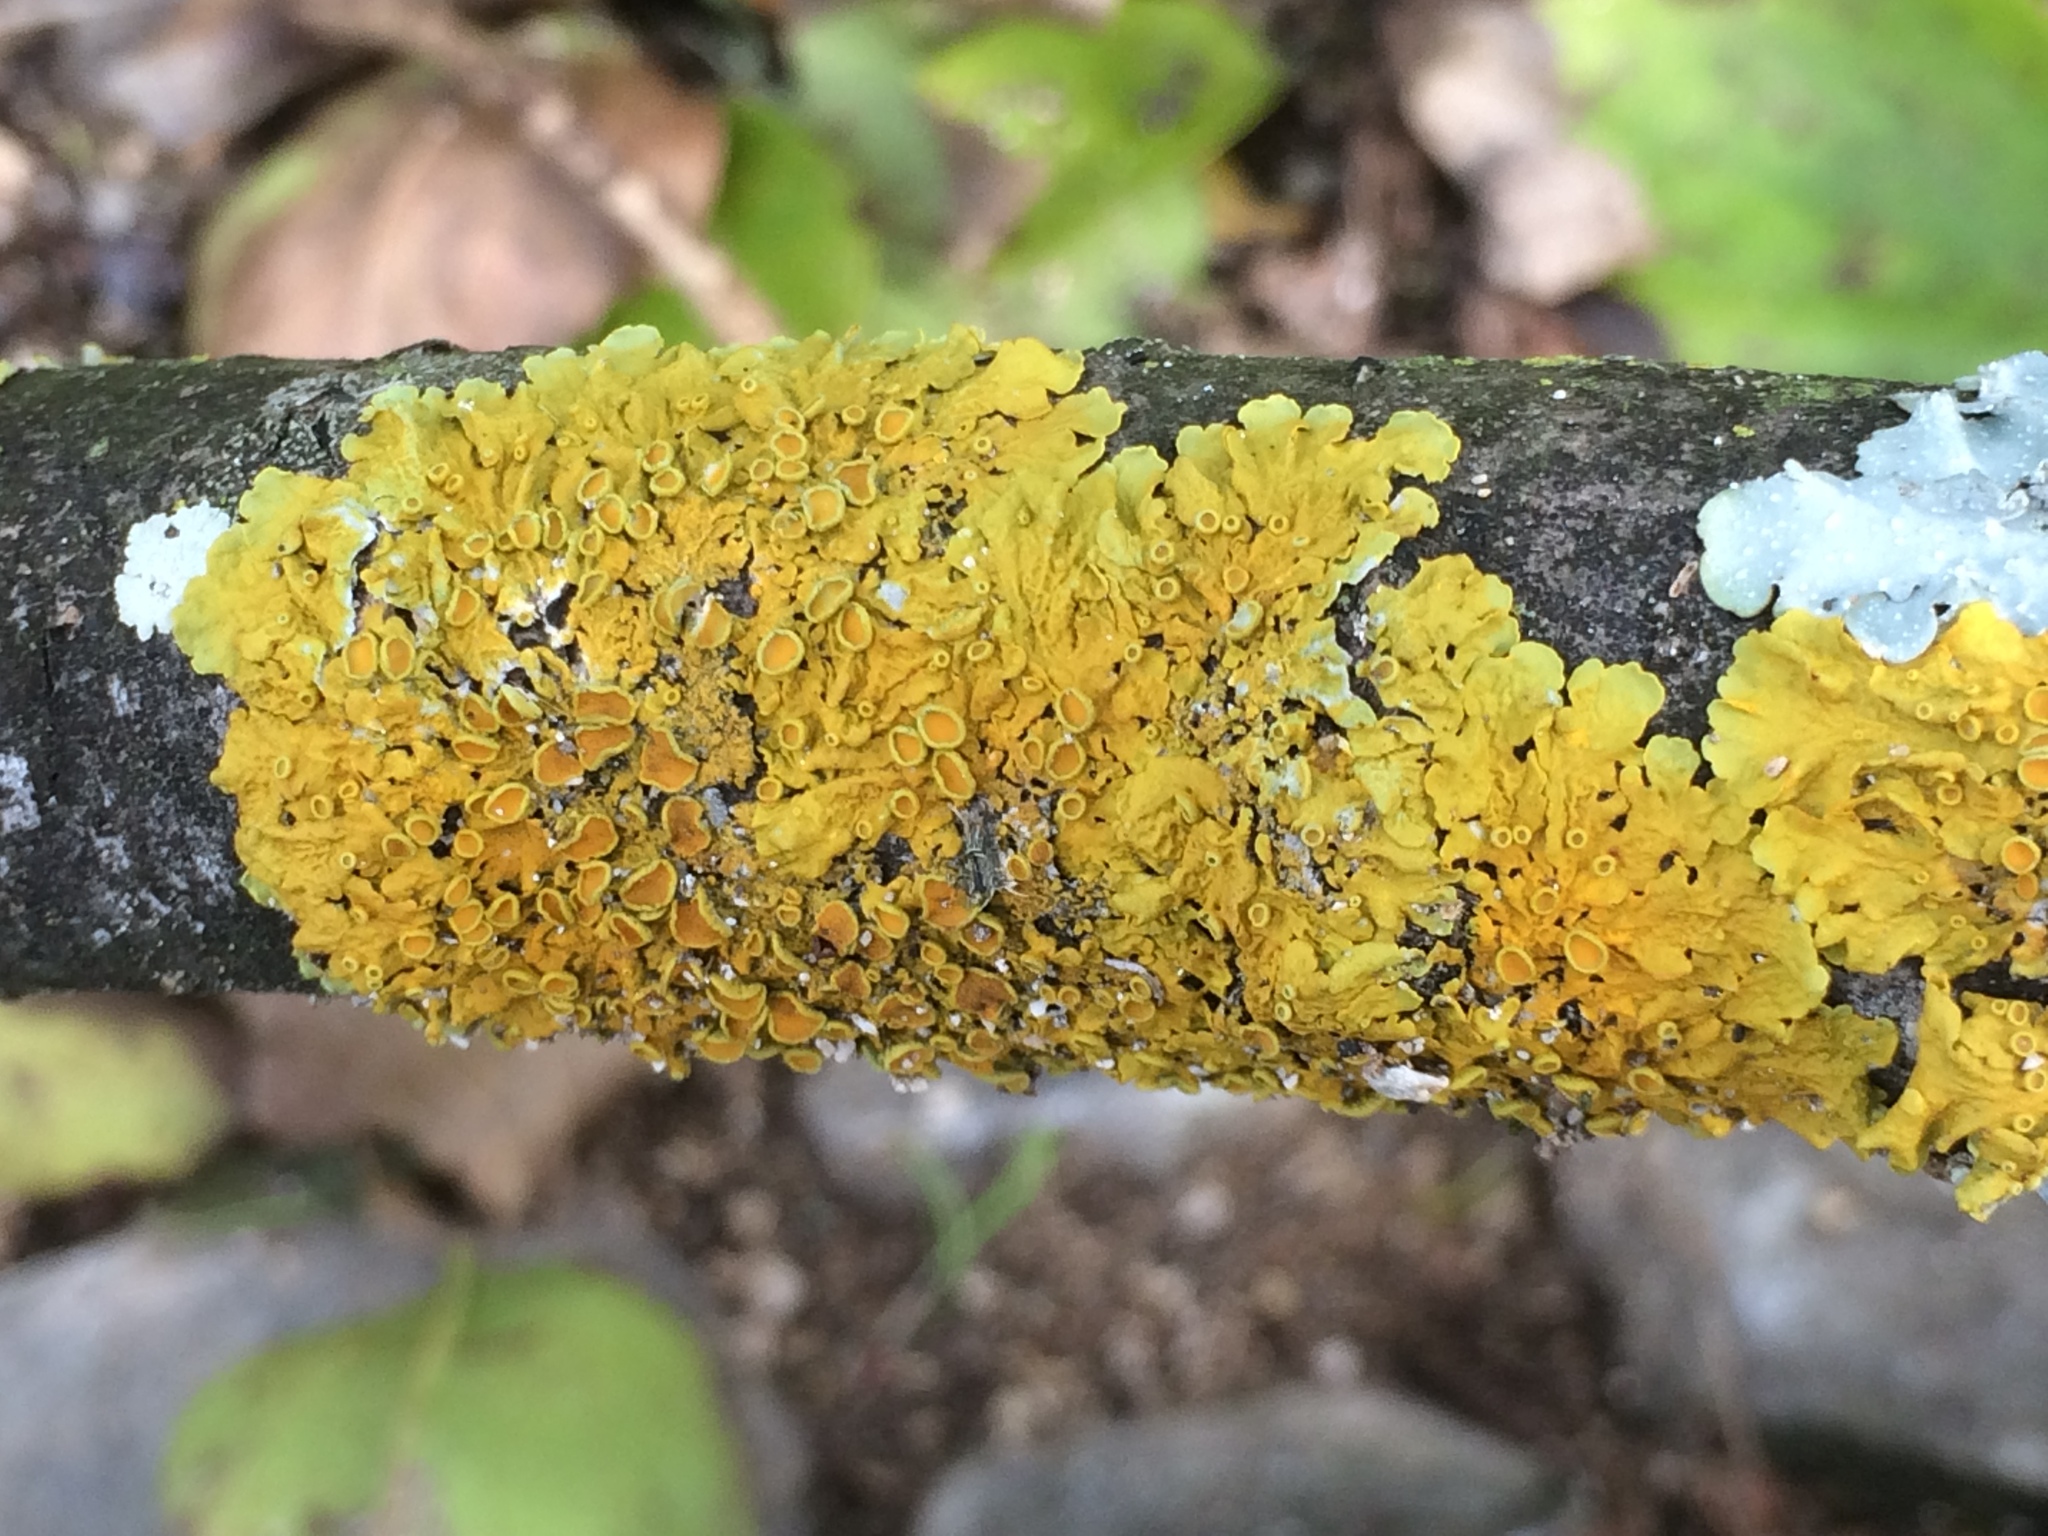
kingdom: Fungi
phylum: Ascomycota
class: Lecanoromycetes
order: Teloschistales
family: Teloschistaceae
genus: Xanthoria
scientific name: Xanthoria parietina
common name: Common orange lichen
